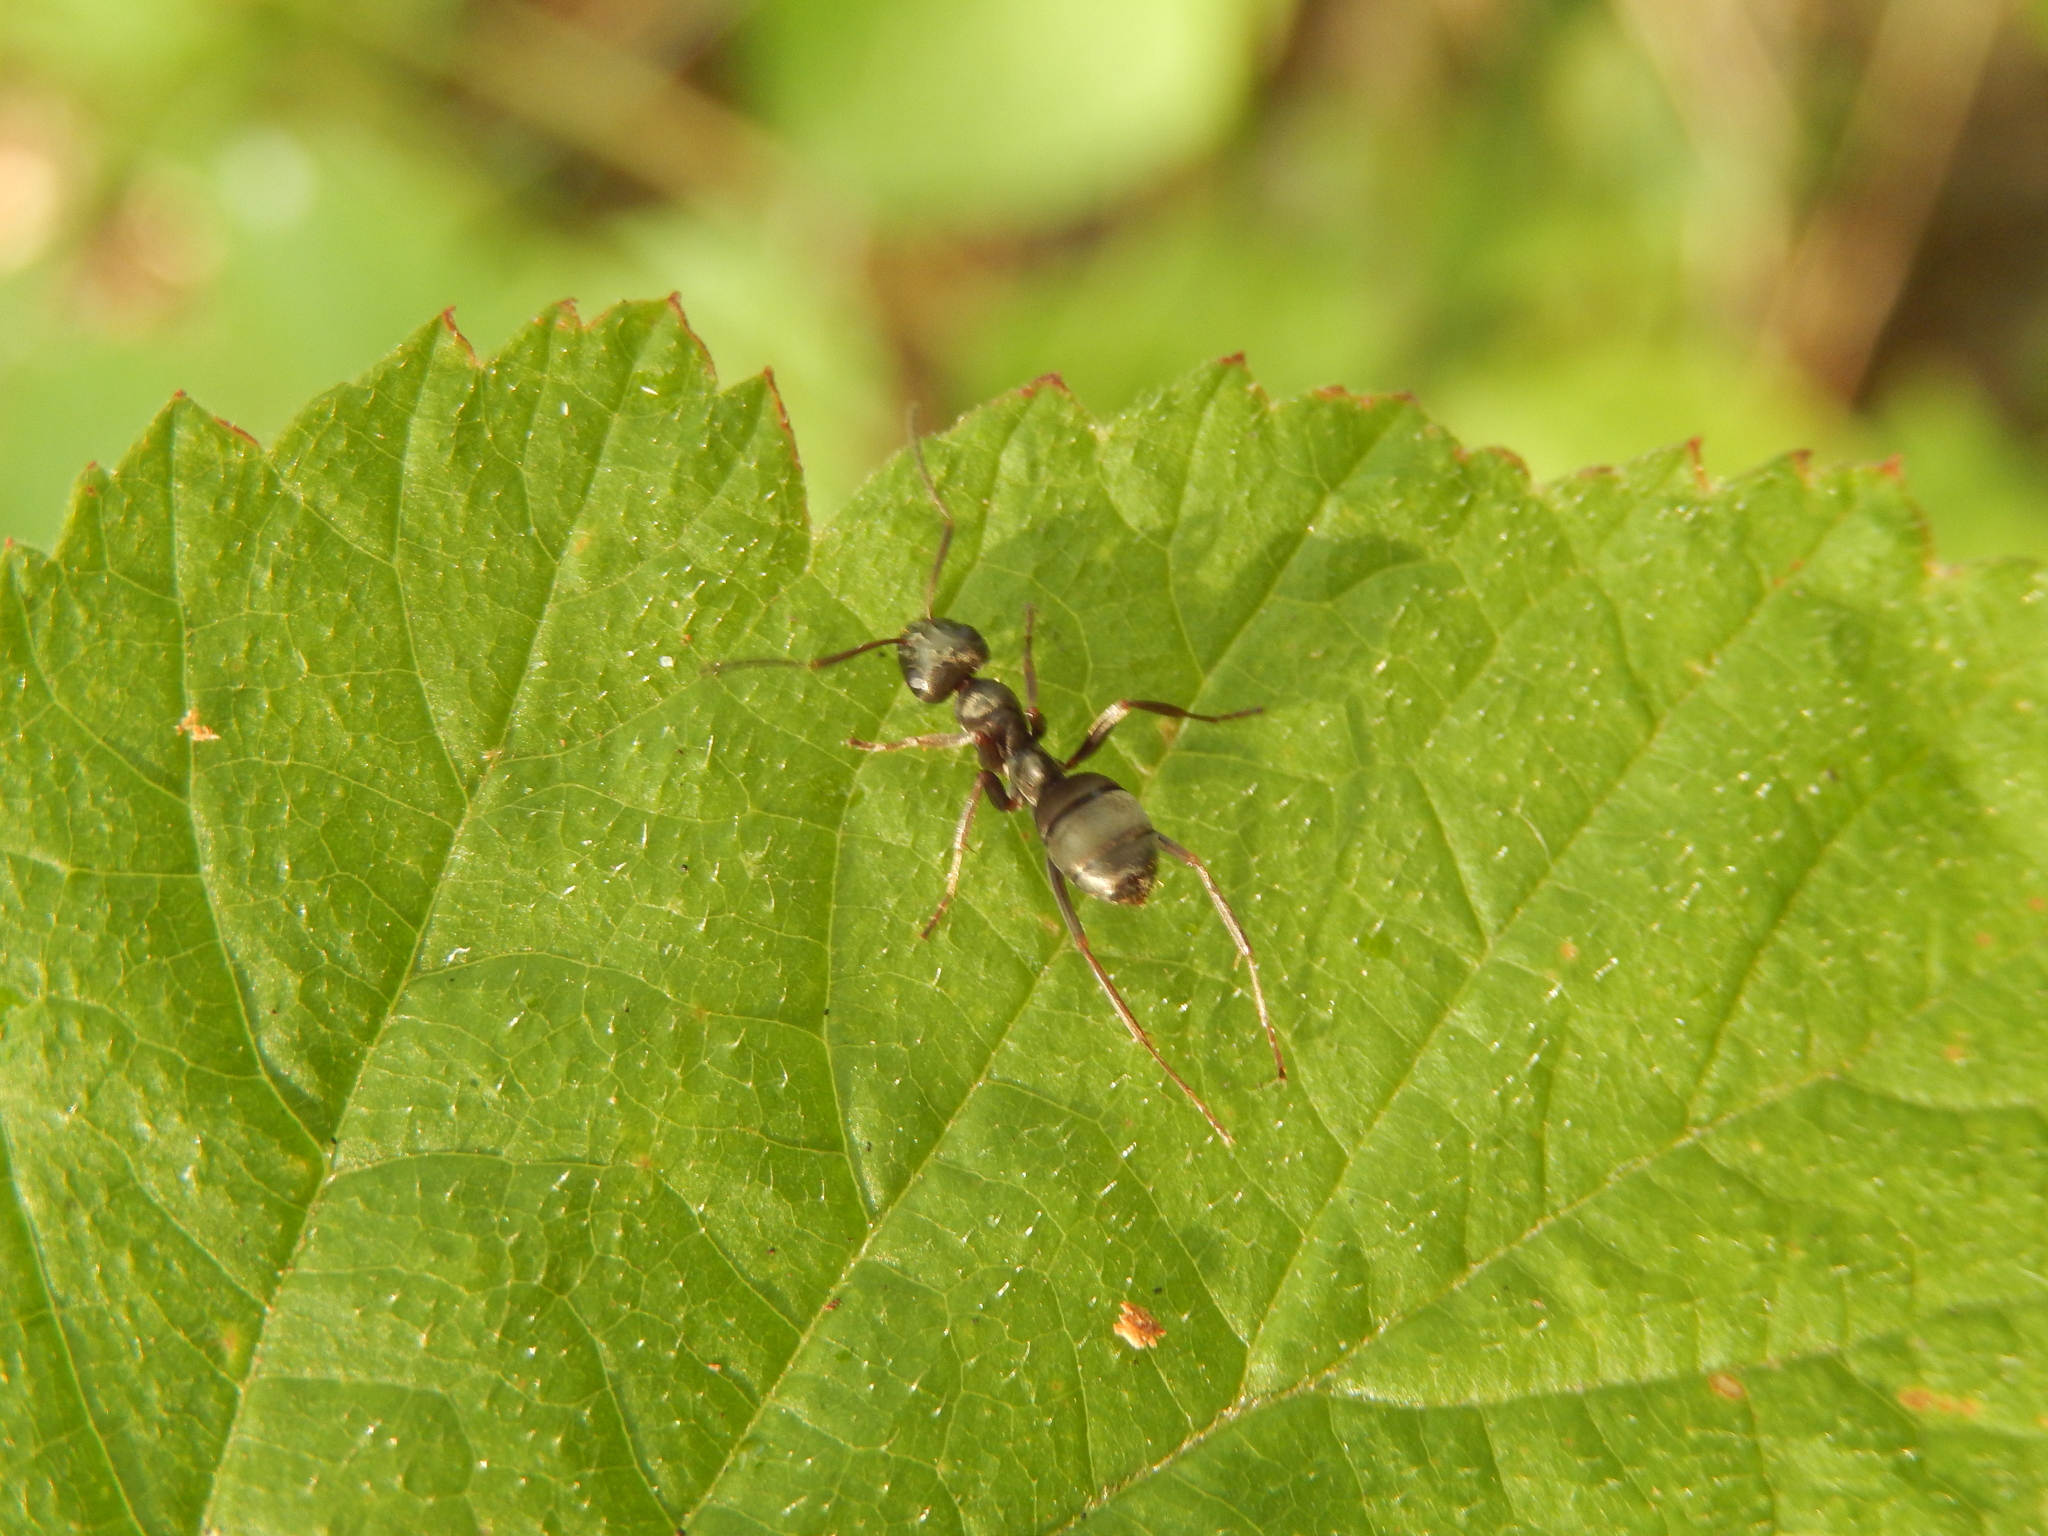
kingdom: Animalia
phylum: Arthropoda
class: Insecta
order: Hymenoptera
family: Formicidae
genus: Formica
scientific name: Formica fusca
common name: Silky ant
